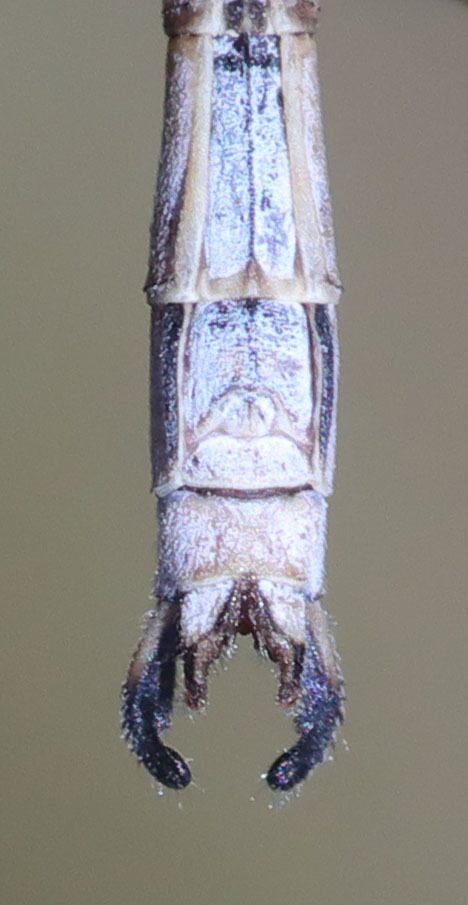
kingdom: Animalia
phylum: Arthropoda
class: Insecta
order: Odonata
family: Lestidae
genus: Lestes
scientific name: Lestes congener
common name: Spotted spreadwing
